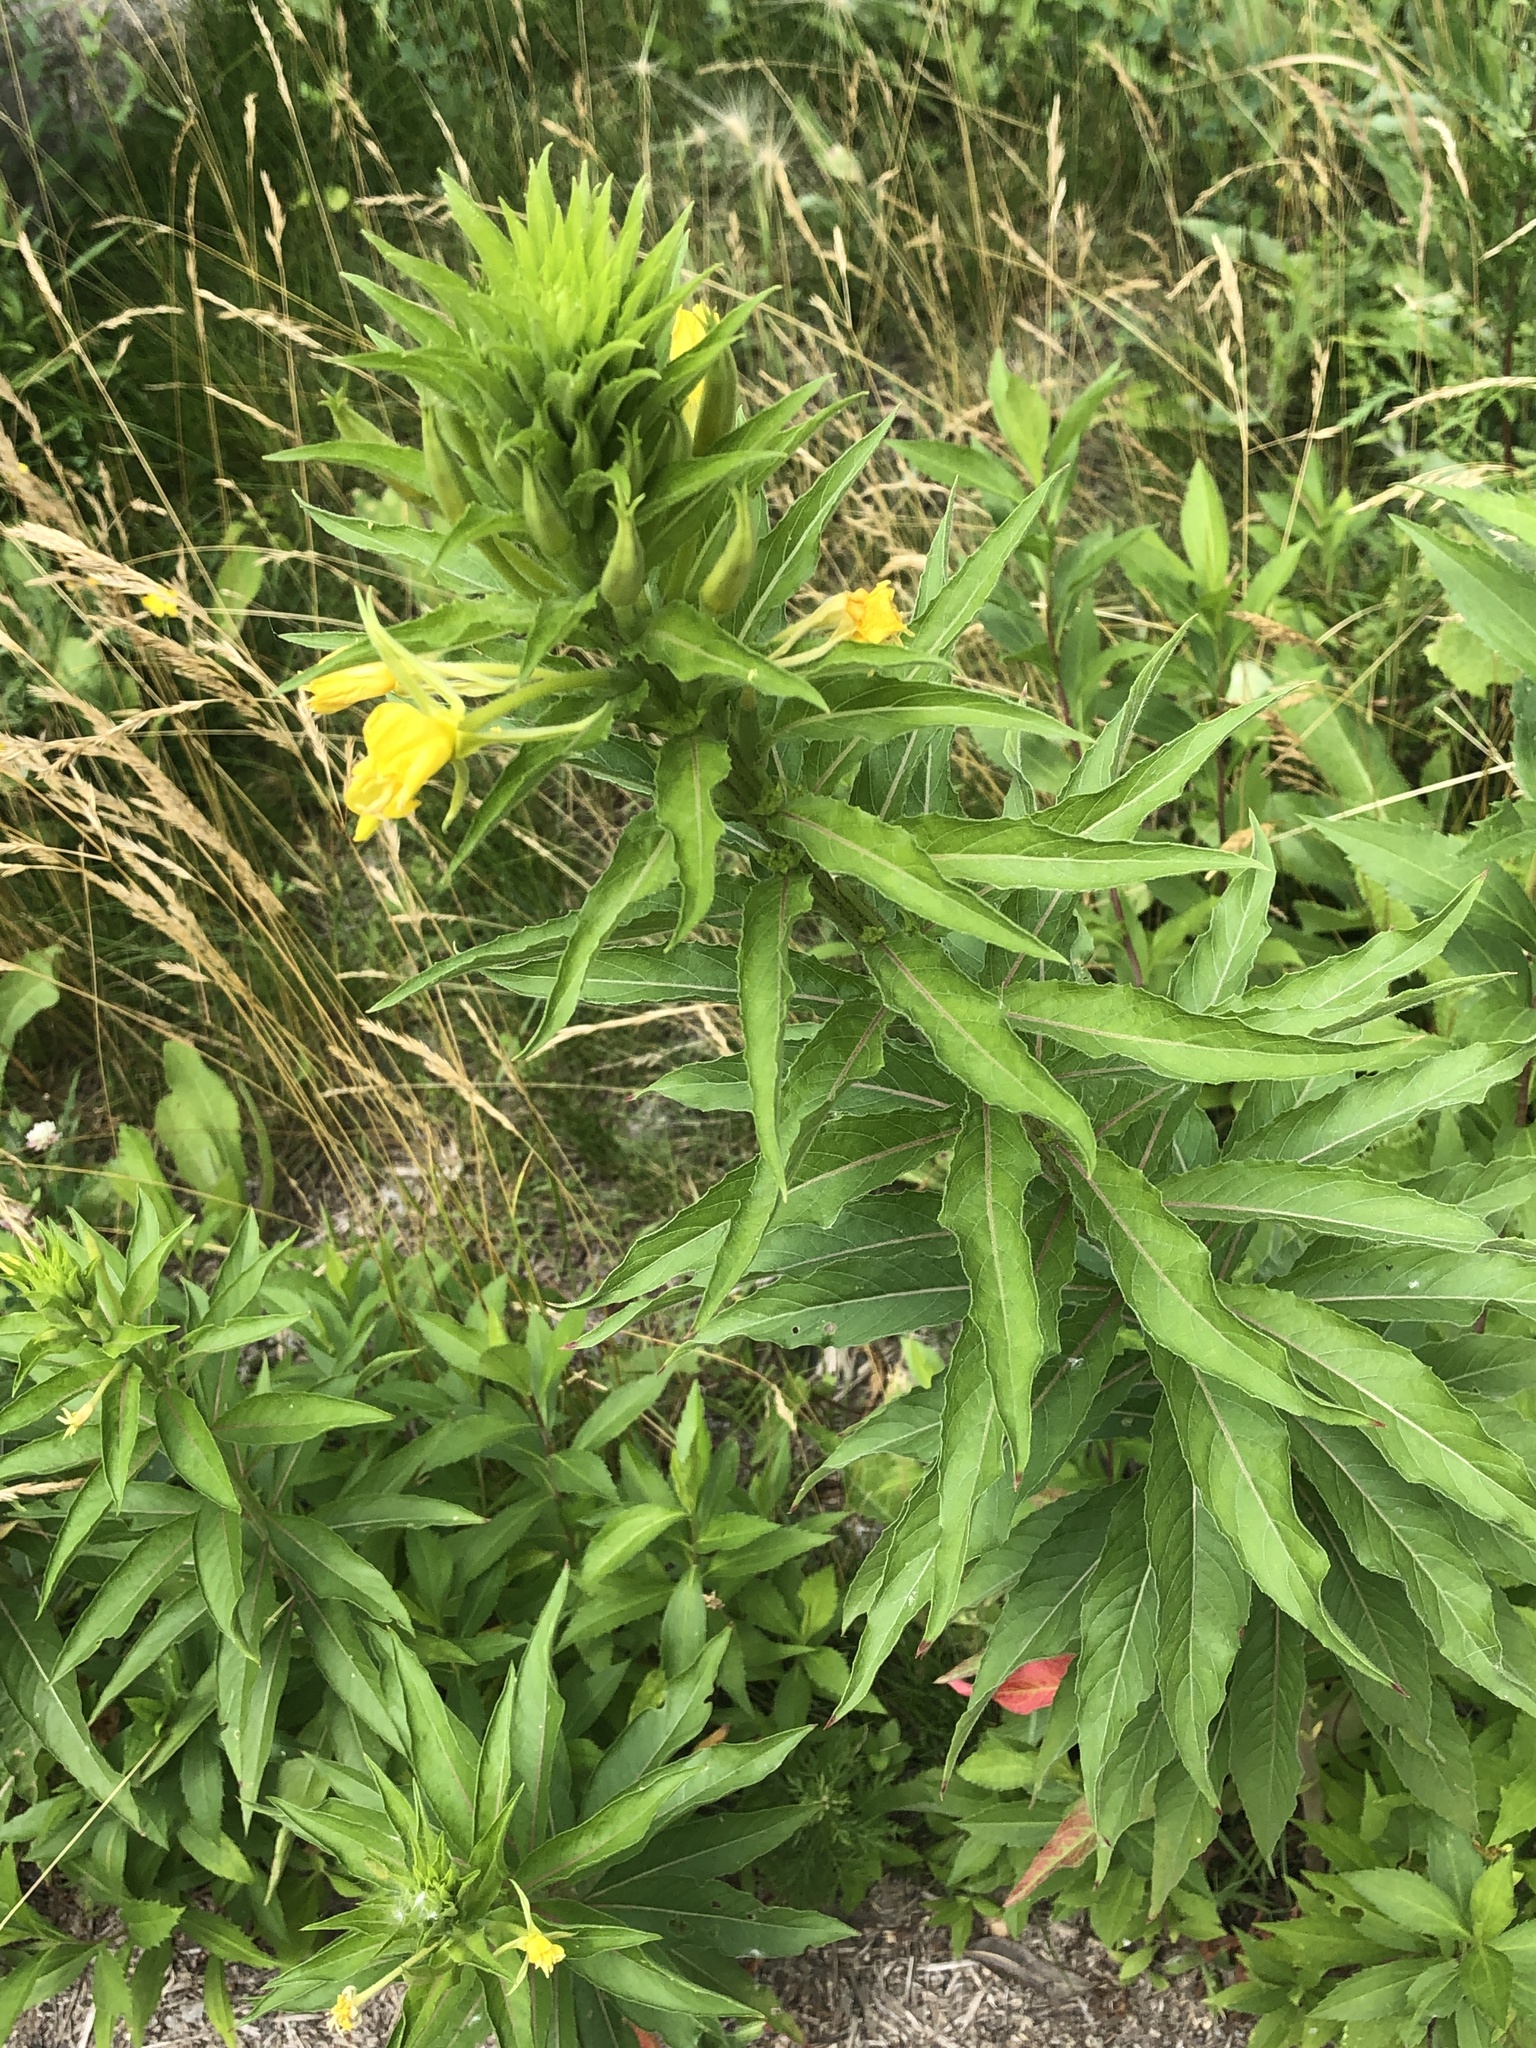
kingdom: Plantae
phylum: Tracheophyta
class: Magnoliopsida
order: Myrtales
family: Onagraceae
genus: Oenothera
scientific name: Oenothera biennis
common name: Common evening-primrose
